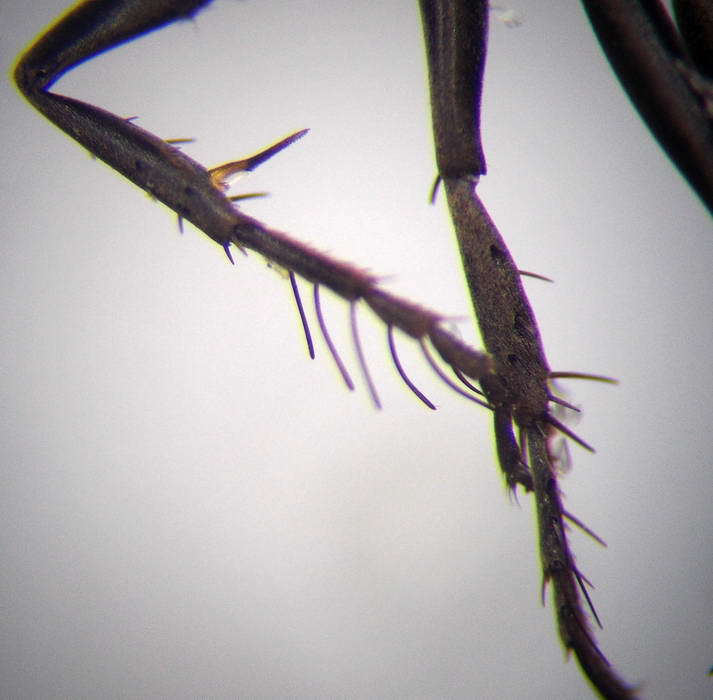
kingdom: Animalia
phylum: Arthropoda
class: Insecta
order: Hymenoptera
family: Pompilidae
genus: Telostegus
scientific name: Telostegus inermis
